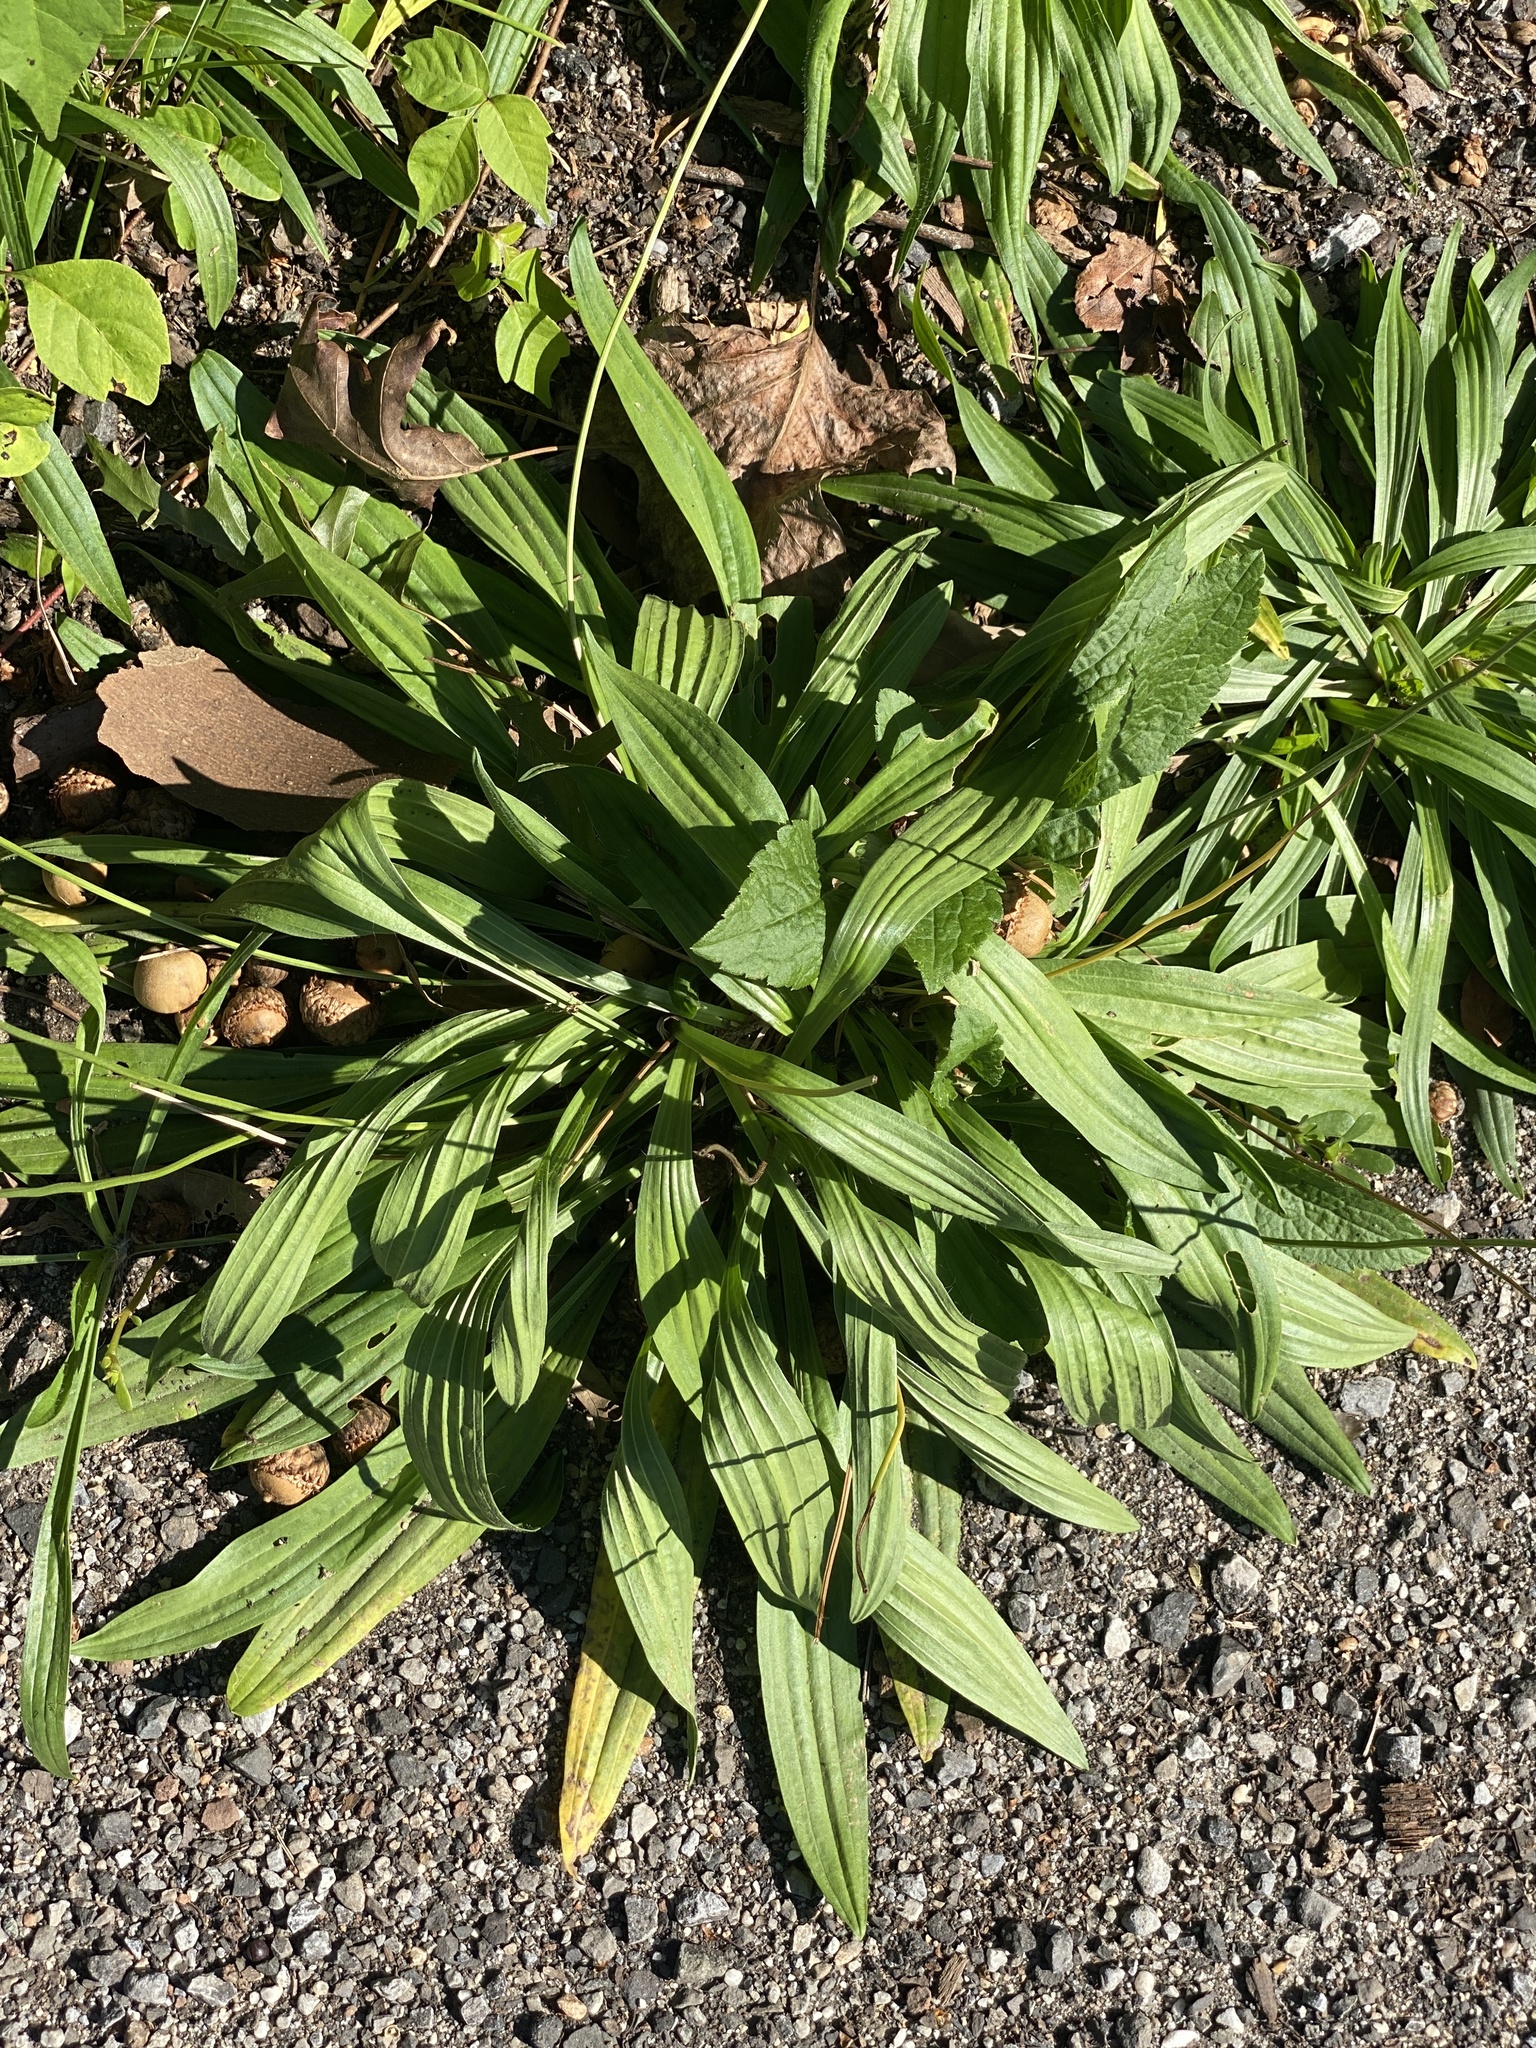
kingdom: Plantae
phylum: Tracheophyta
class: Magnoliopsida
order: Lamiales
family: Plantaginaceae
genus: Plantago
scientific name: Plantago lanceolata
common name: Ribwort plantain
